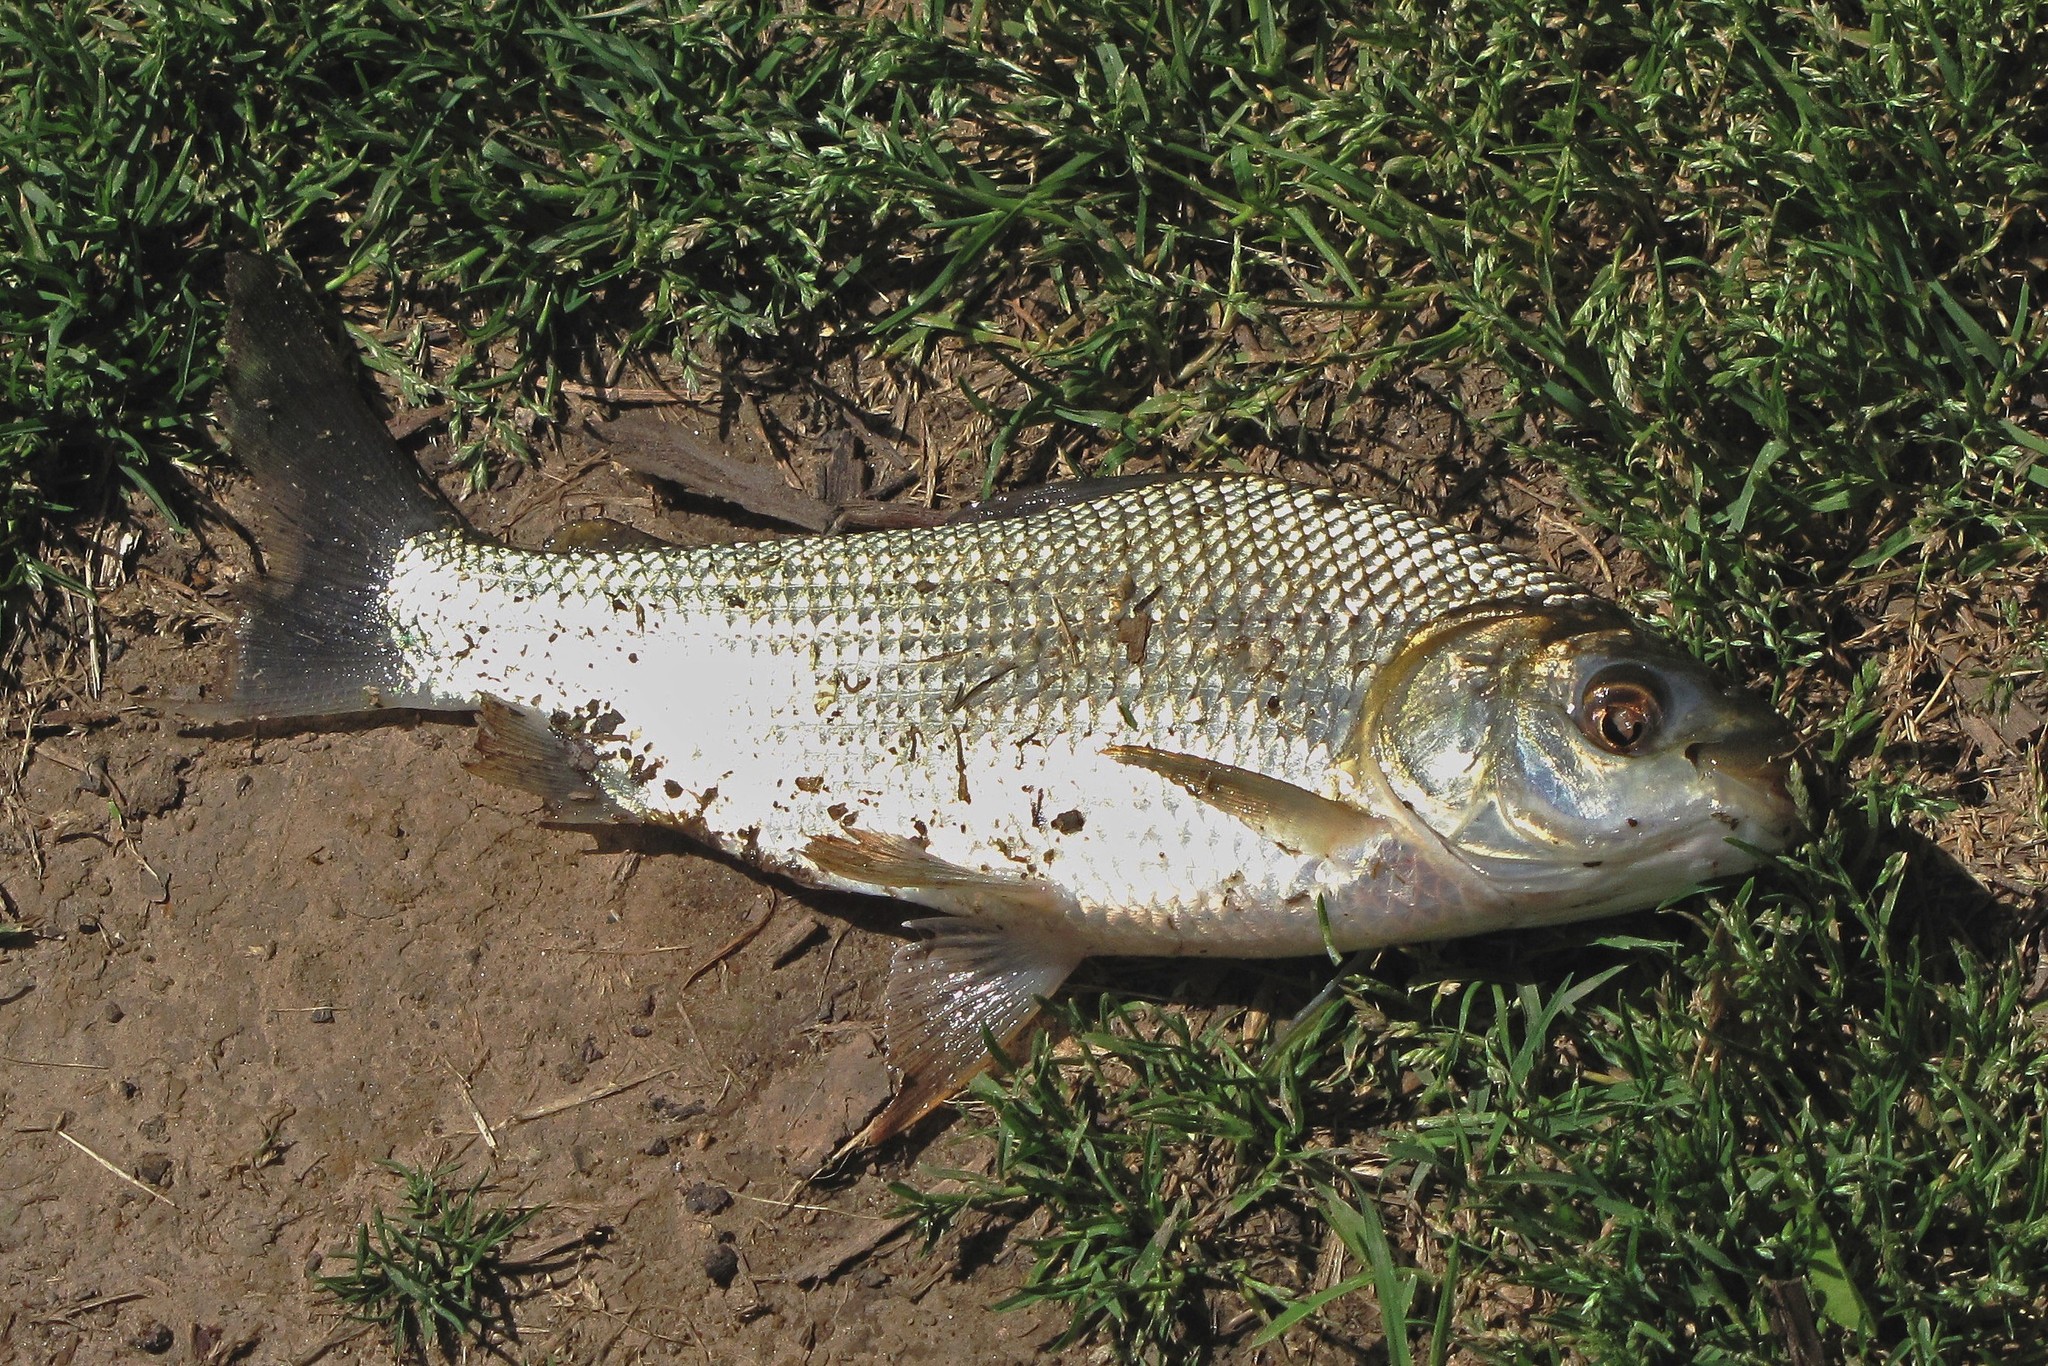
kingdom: Animalia
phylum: Chordata
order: Characiformes
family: Prochilodontidae
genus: Prochilodus
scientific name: Prochilodus lineatus
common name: Curimbata
